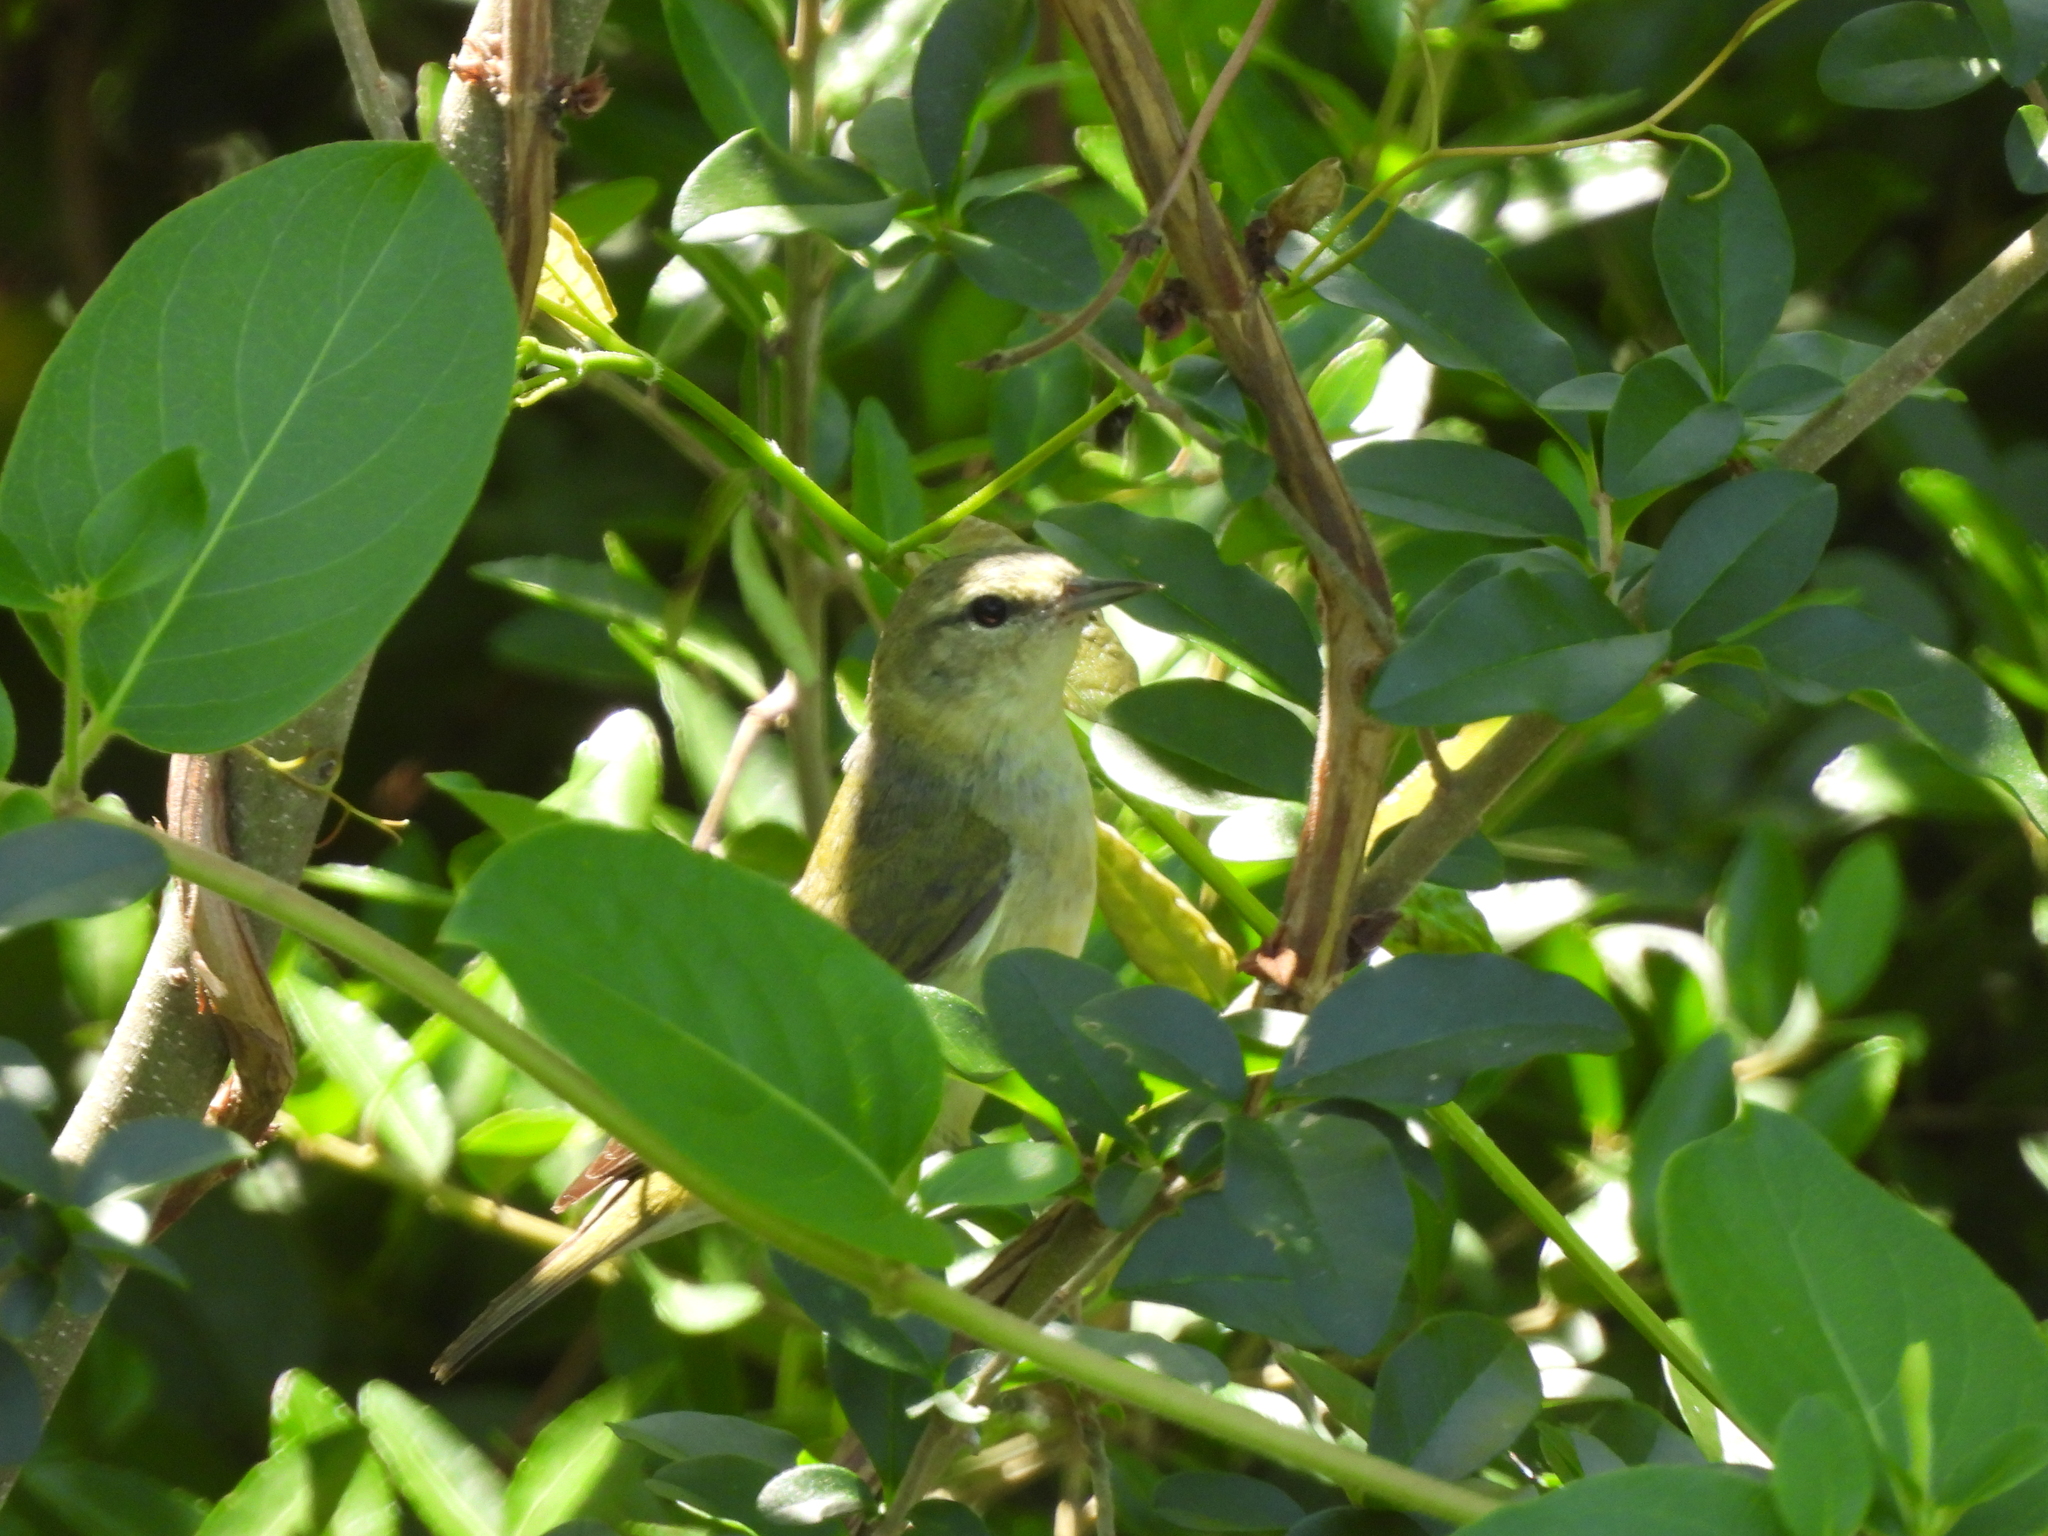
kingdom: Animalia
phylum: Chordata
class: Aves
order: Passeriformes
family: Parulidae
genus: Leiothlypis
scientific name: Leiothlypis peregrina
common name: Tennessee warbler
